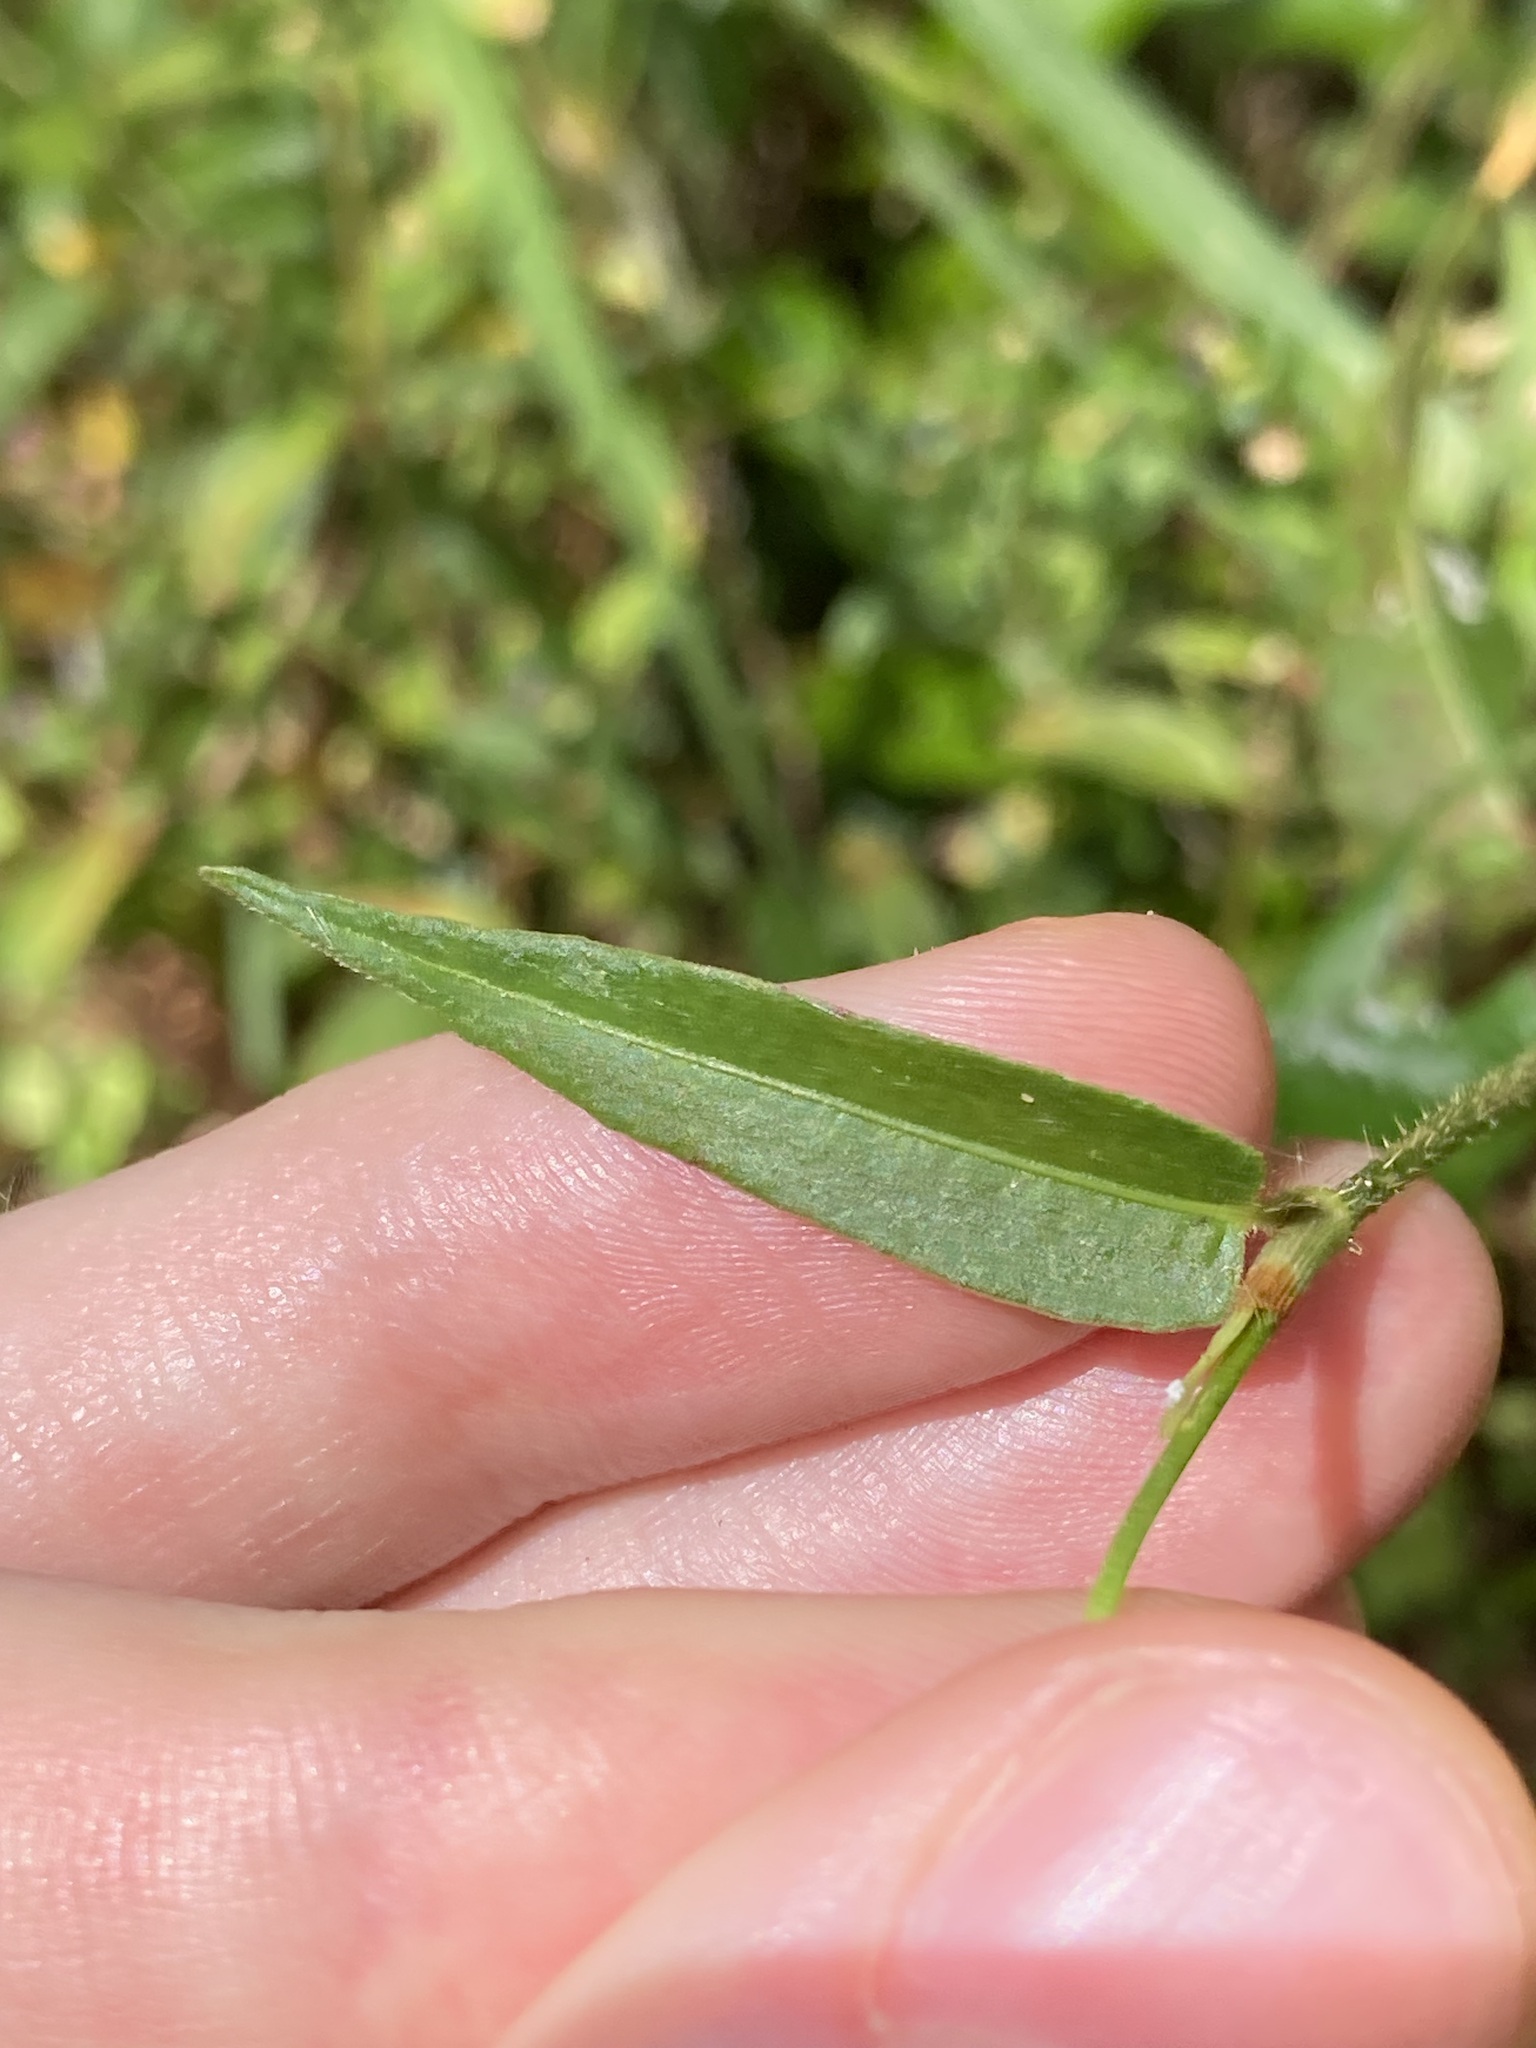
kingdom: Plantae
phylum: Tracheophyta
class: Magnoliopsida
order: Caryophyllales
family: Polygonaceae
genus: Persicaria
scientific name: Persicaria strigosa
